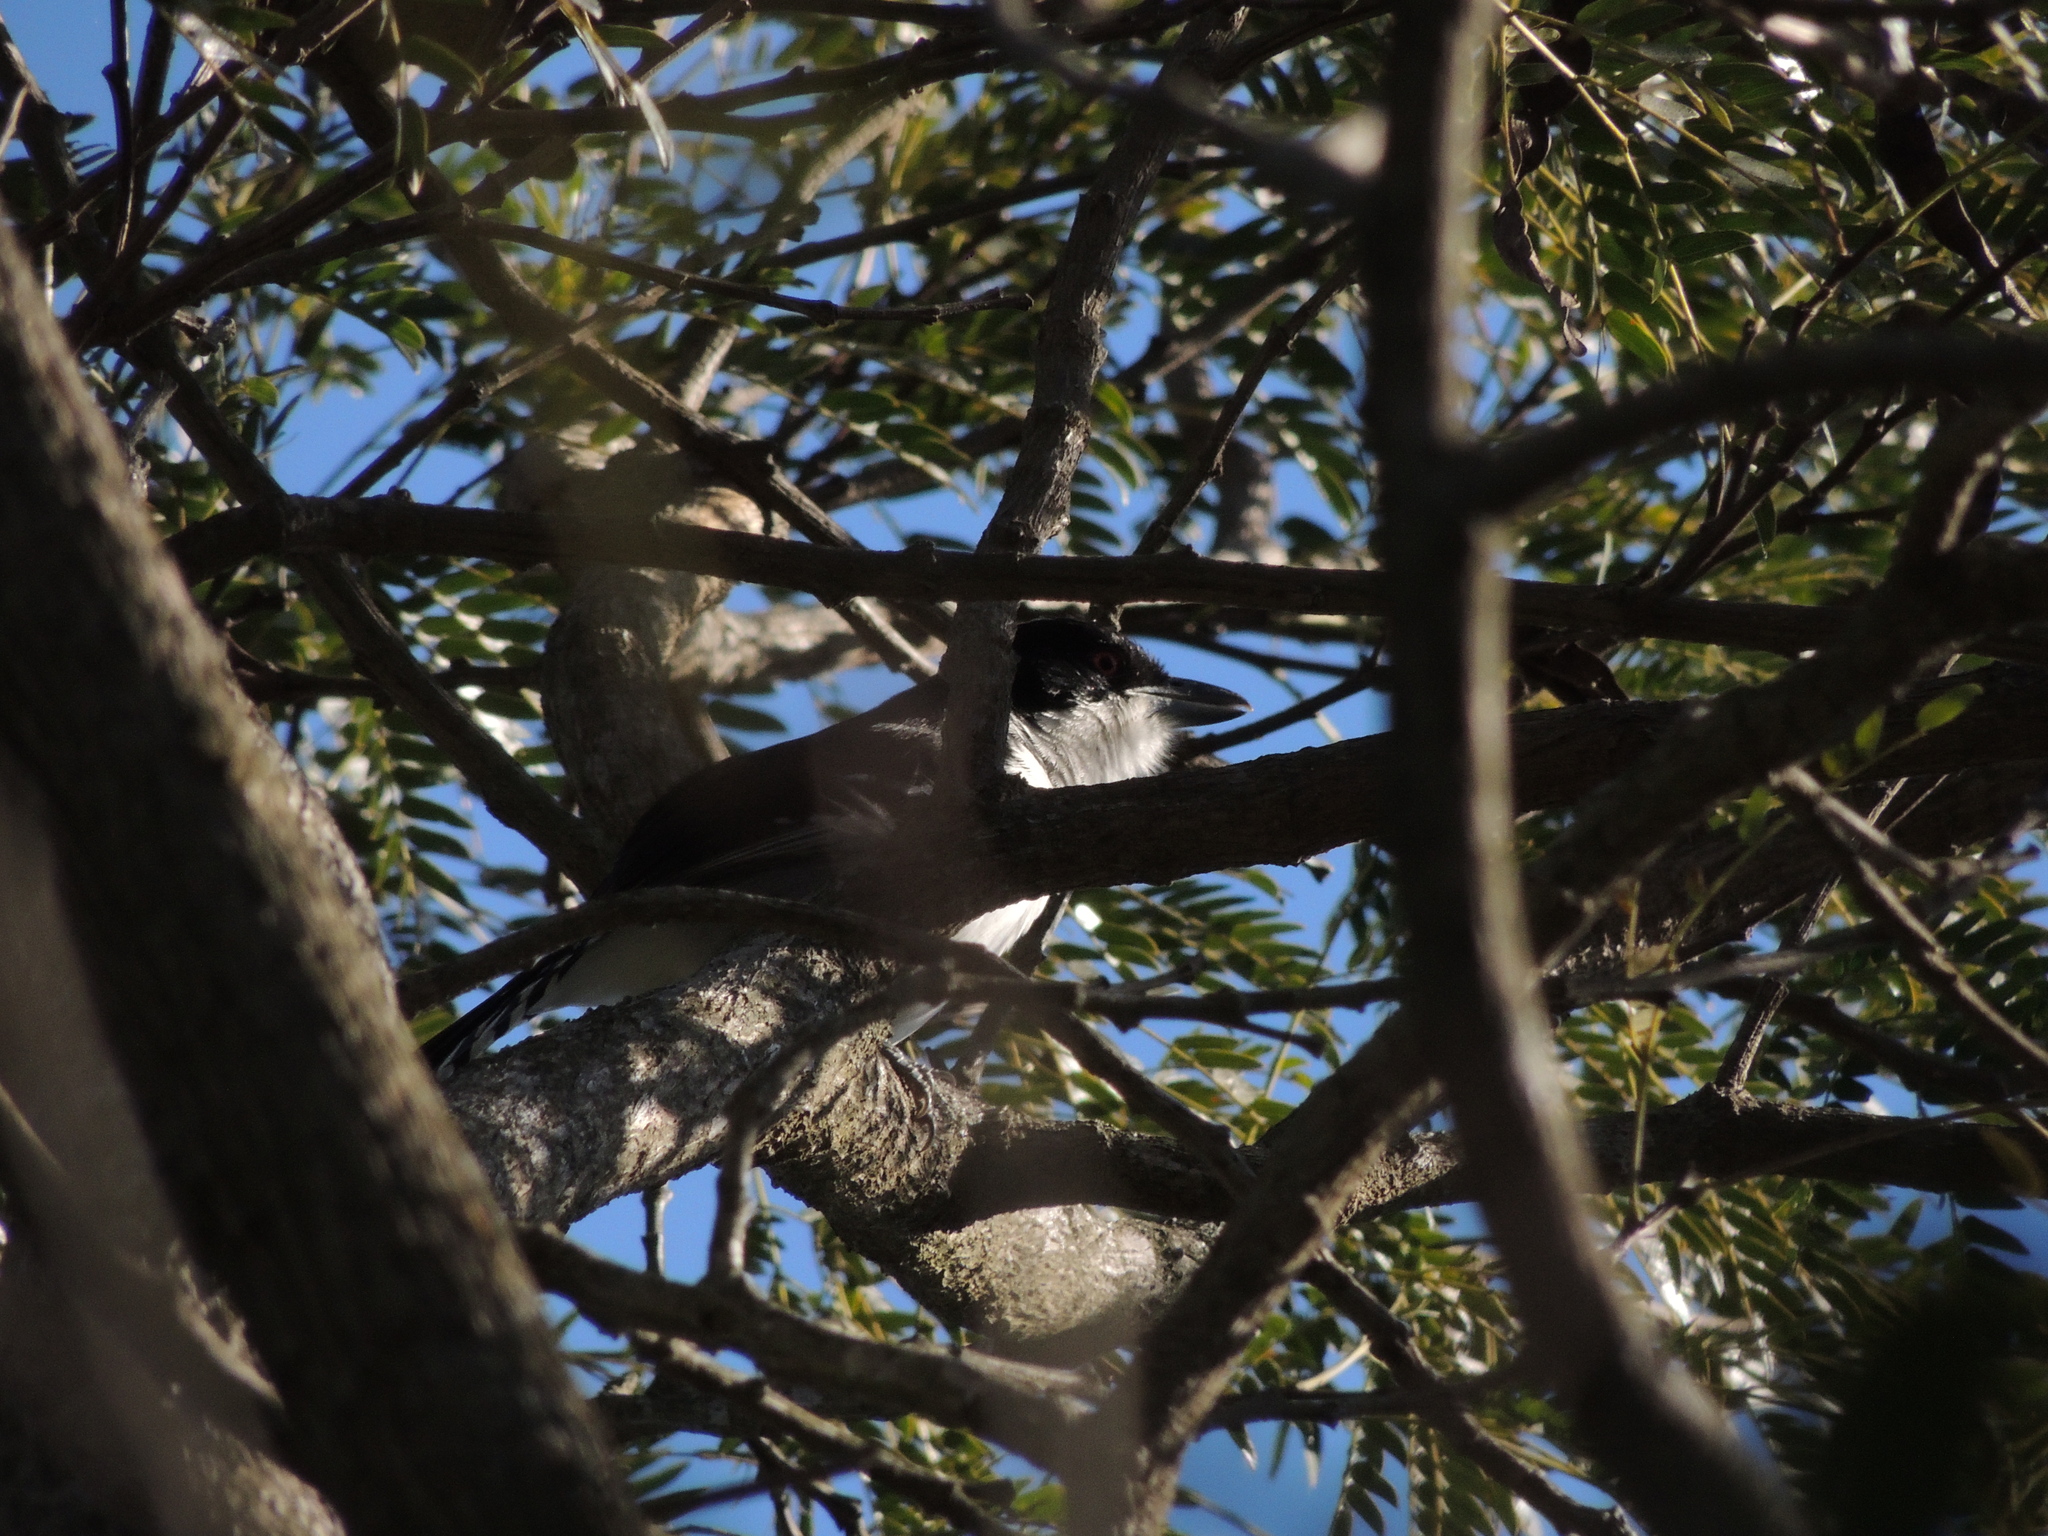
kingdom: Animalia
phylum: Chordata
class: Aves
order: Passeriformes
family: Thamnophilidae
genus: Taraba
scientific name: Taraba major
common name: Great antshrike
